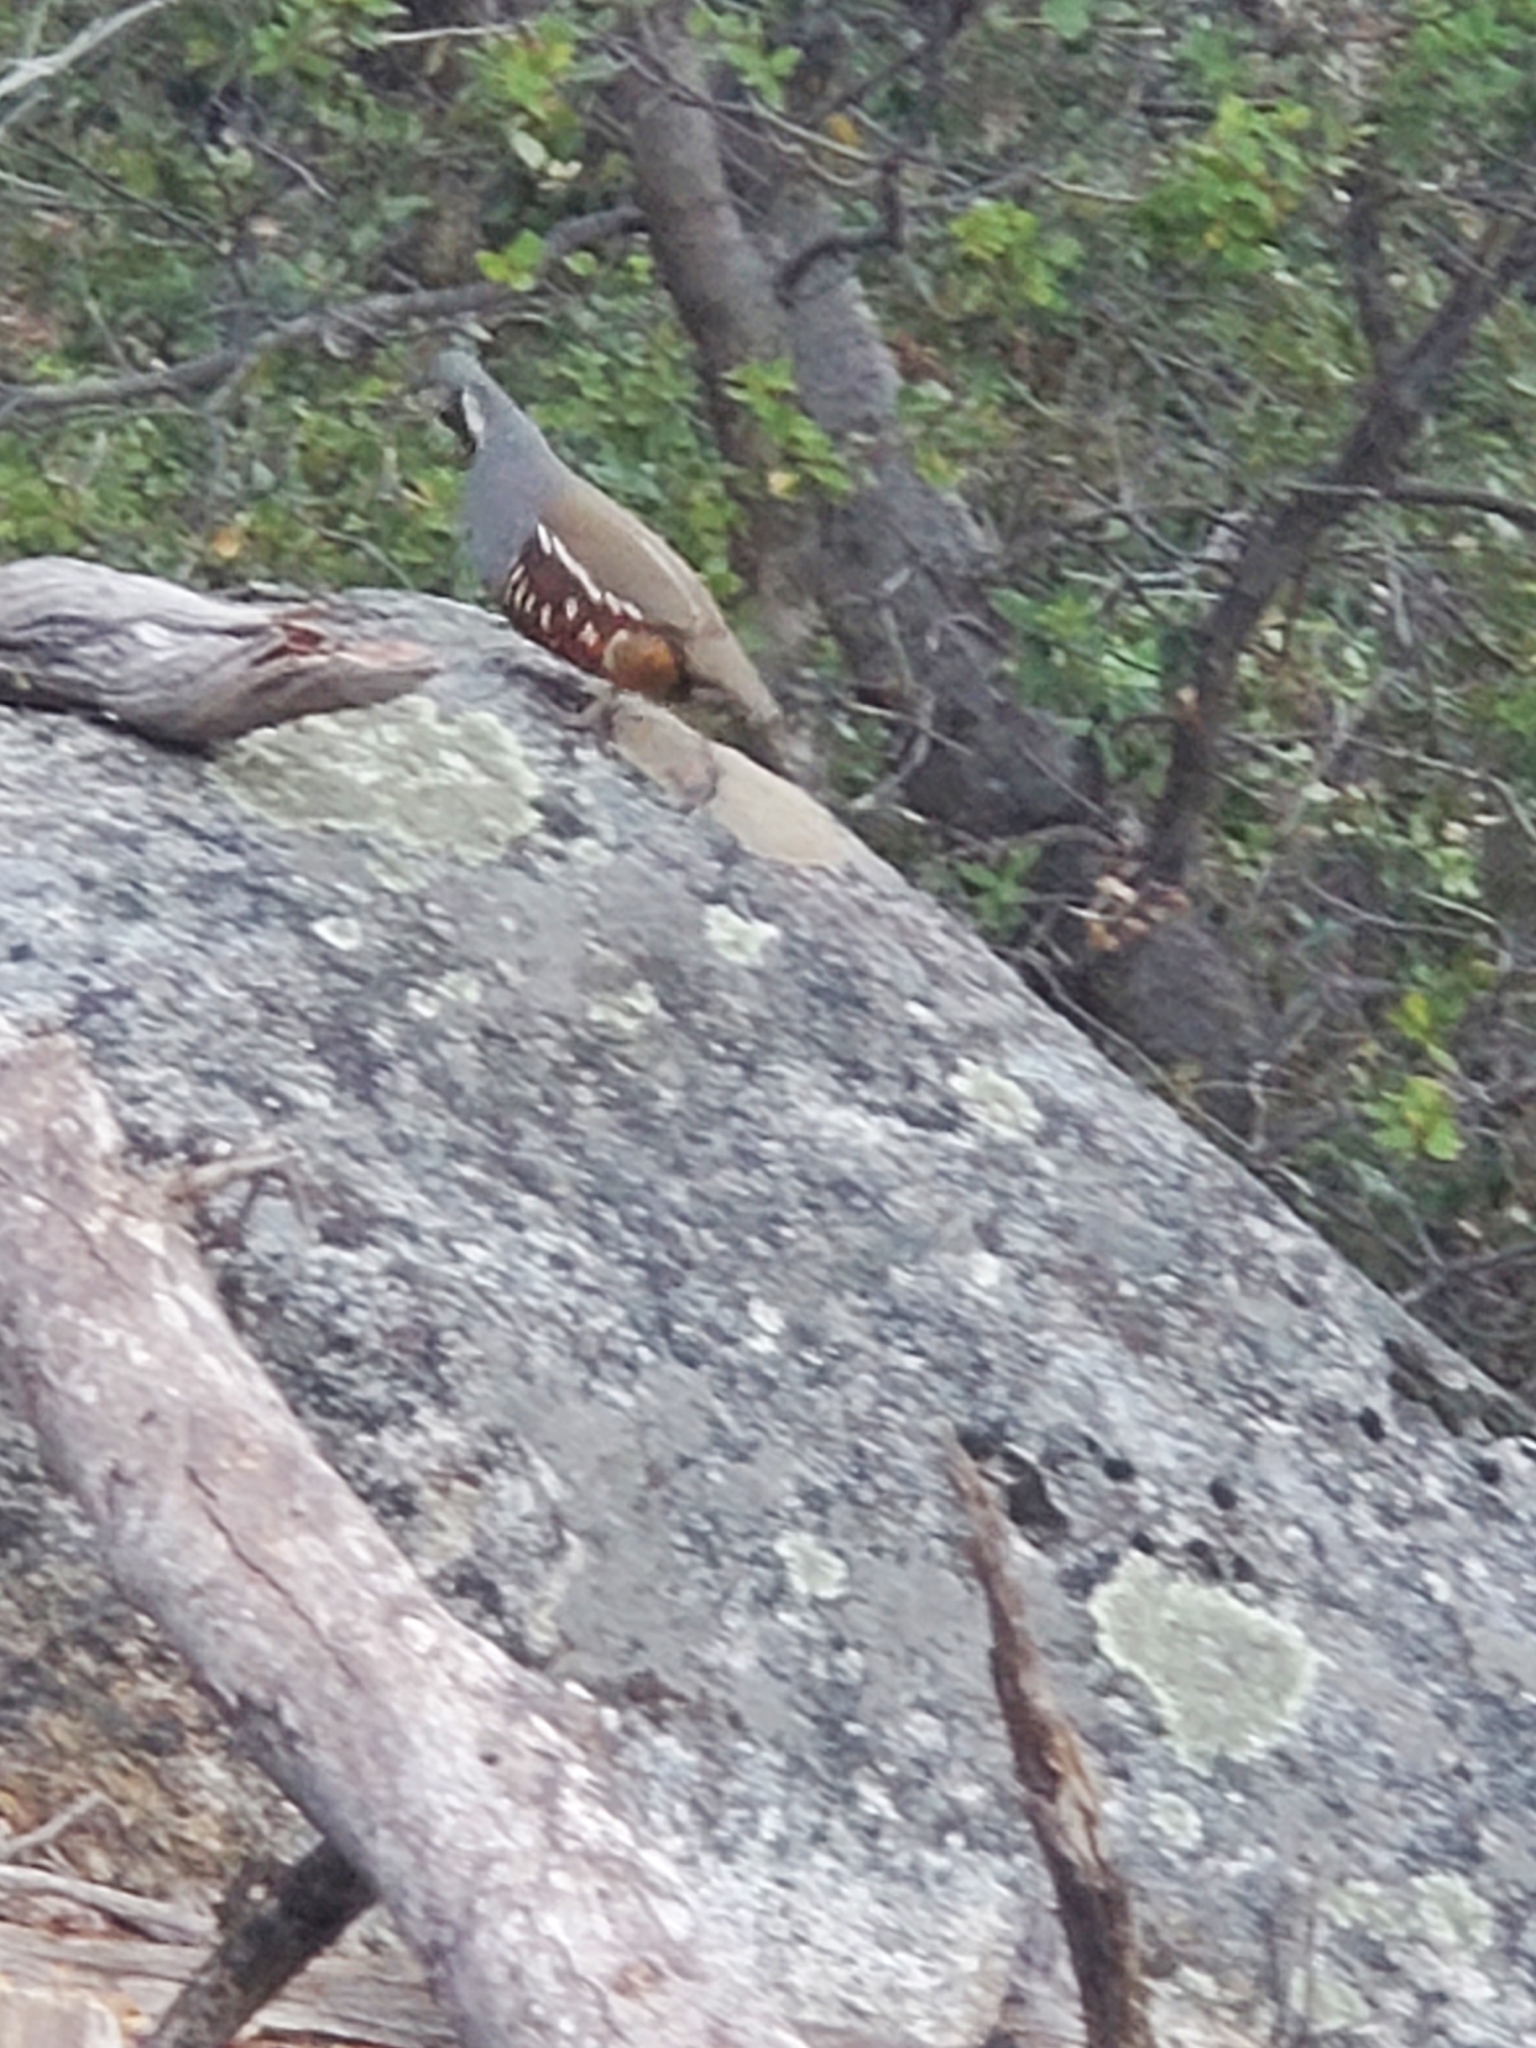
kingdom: Animalia
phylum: Chordata
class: Aves
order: Galliformes
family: Odontophoridae
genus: Oreortyx
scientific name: Oreortyx pictus
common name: Mountain quail
